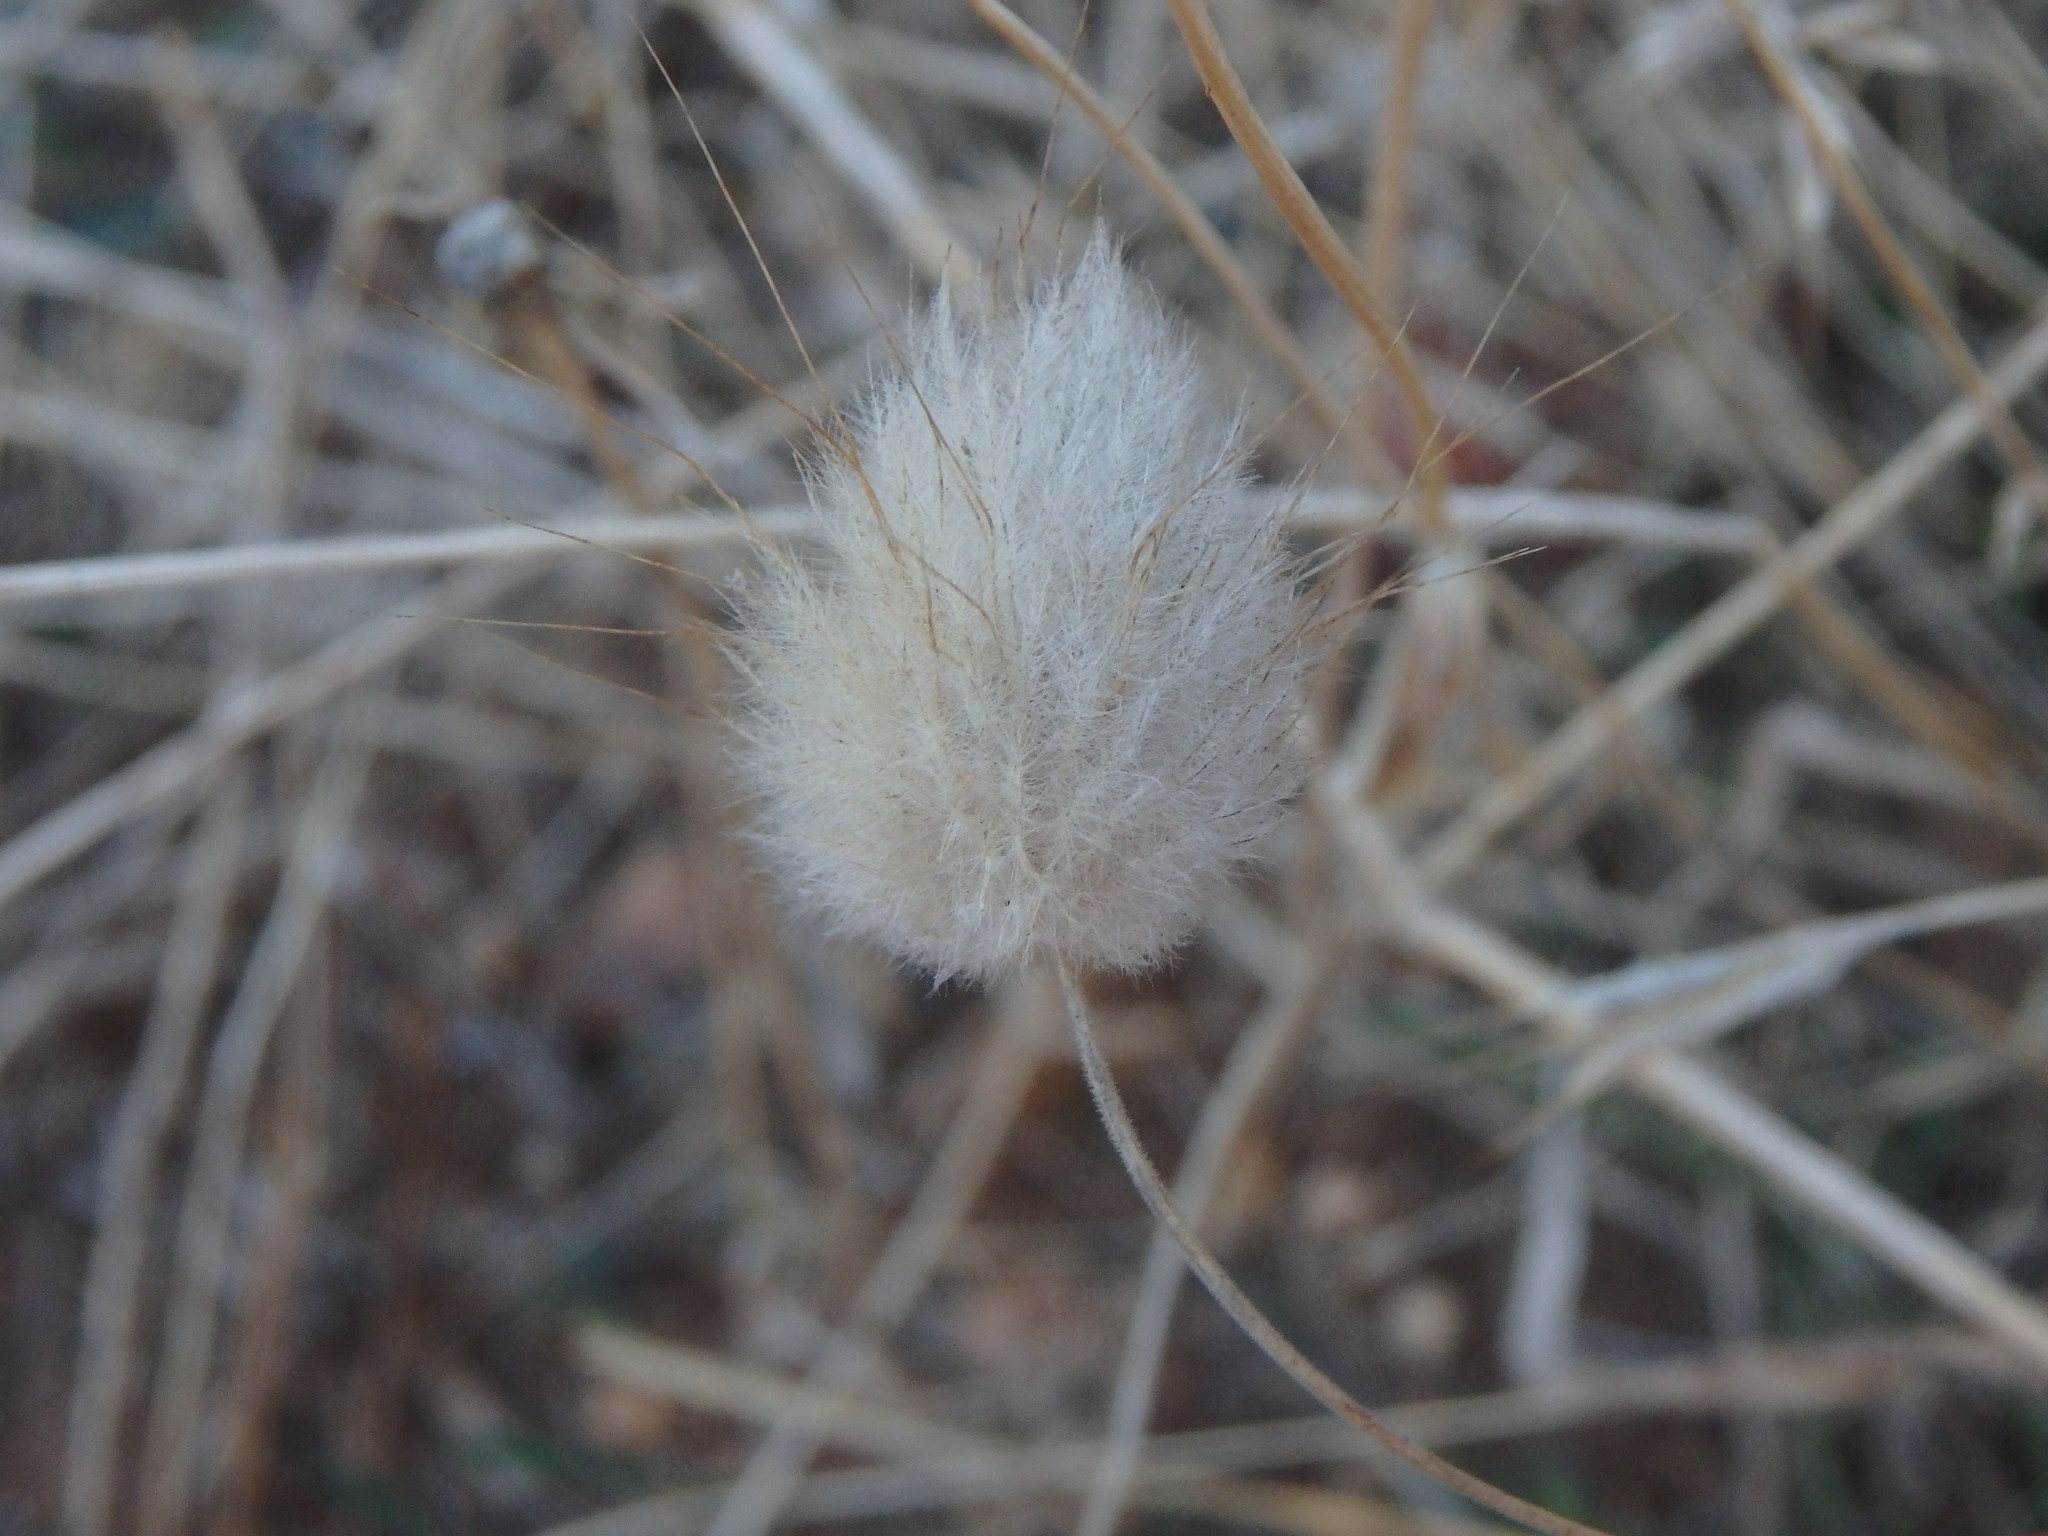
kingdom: Plantae
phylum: Tracheophyta
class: Liliopsida
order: Poales
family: Poaceae
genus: Lagurus
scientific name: Lagurus ovatus
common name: Hare's-tail
